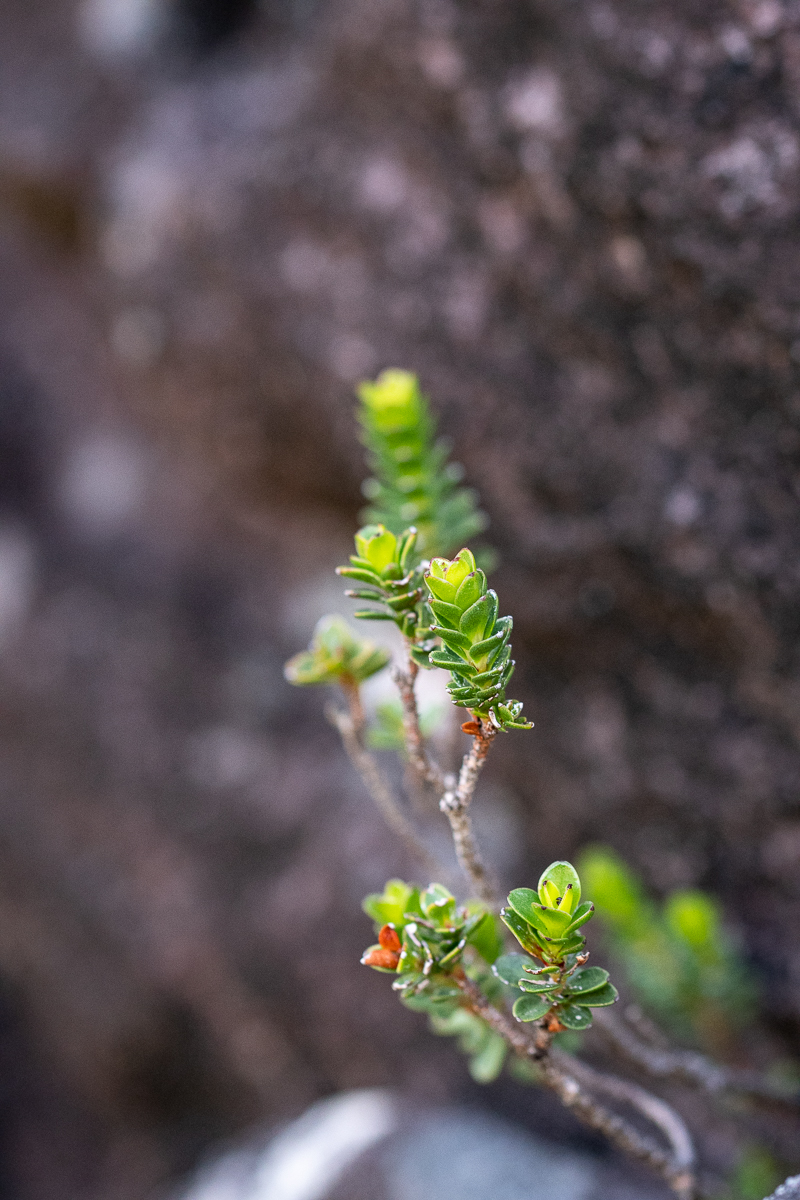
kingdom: Plantae
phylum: Tracheophyta
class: Magnoliopsida
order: Myrtales
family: Penaeaceae
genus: Sonderothamnus
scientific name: Sonderothamnus petraeus
